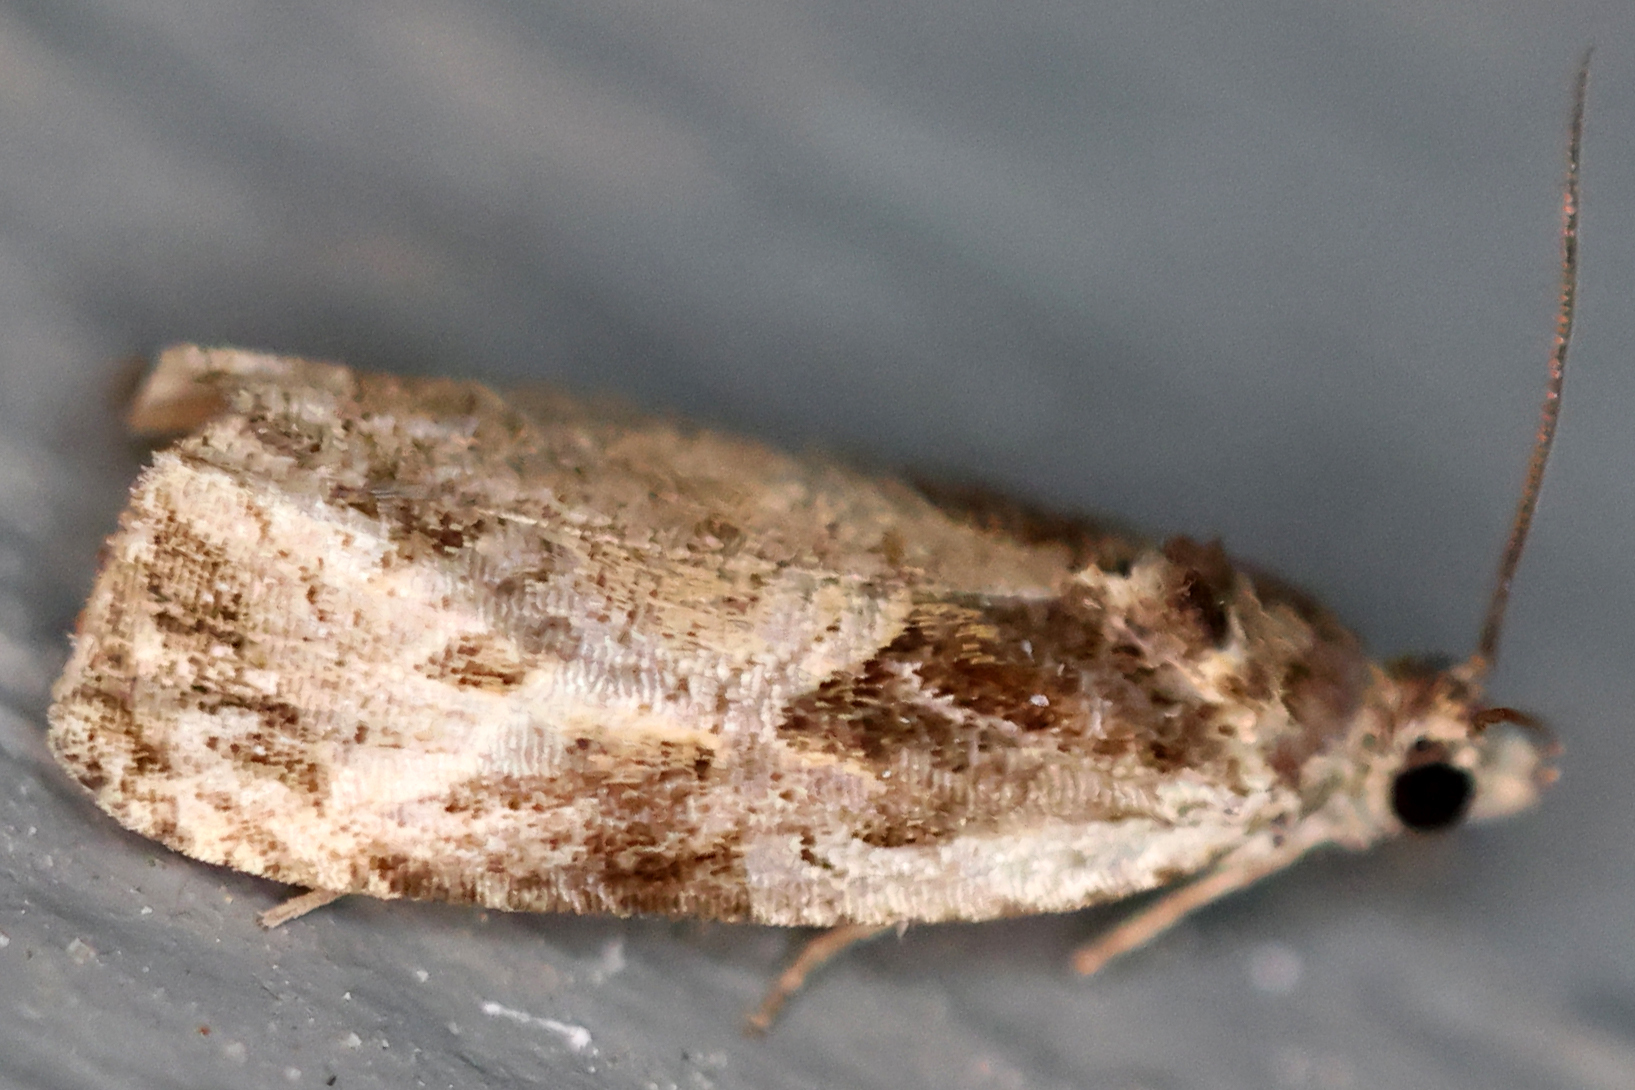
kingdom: Animalia
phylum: Arthropoda
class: Insecta
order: Lepidoptera
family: Tortricidae
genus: Olethreutes
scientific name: Olethreutes connectum
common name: Bunchberry leaffolder moth
